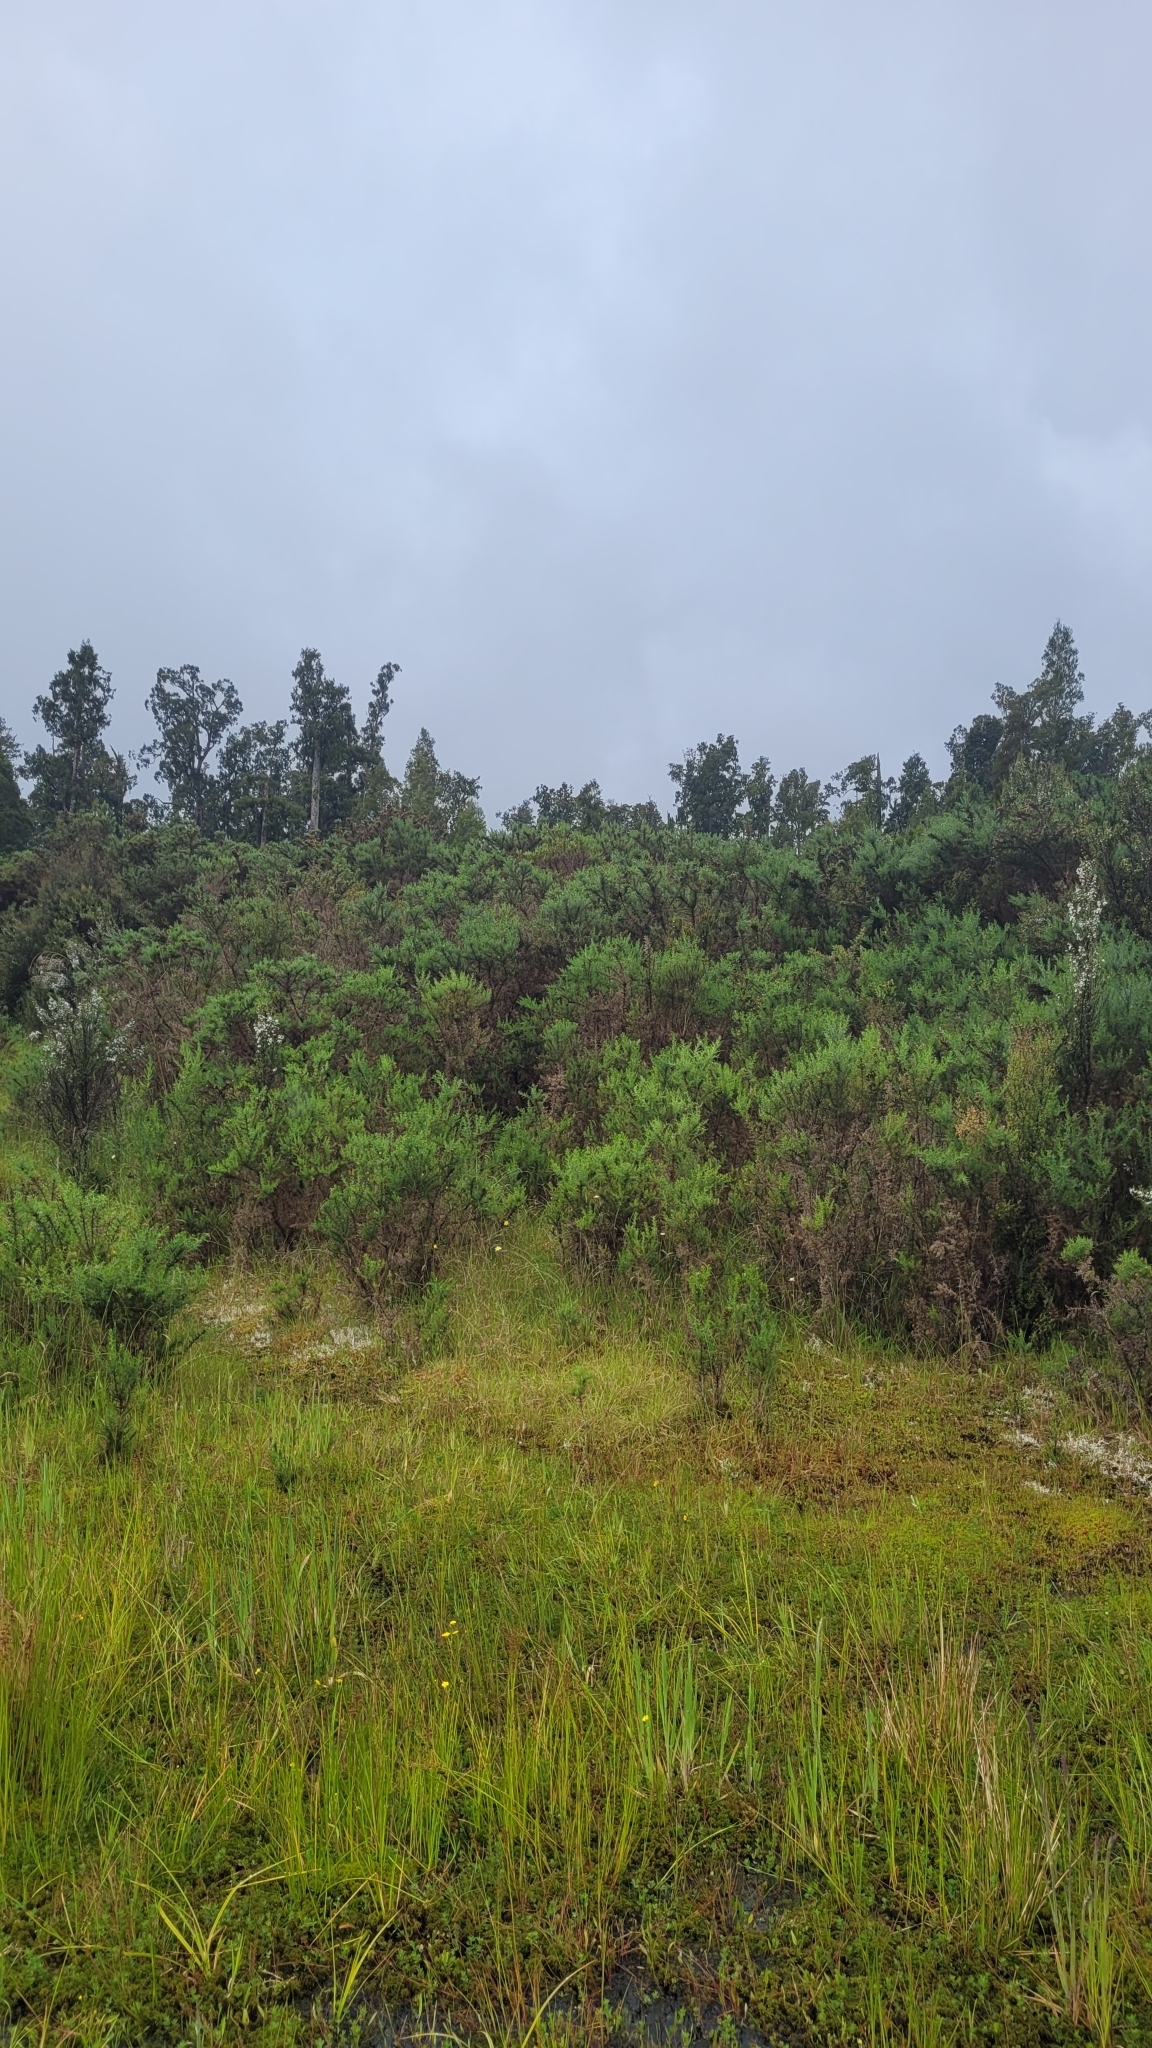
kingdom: Plantae
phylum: Tracheophyta
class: Magnoliopsida
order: Fabales
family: Fabaceae
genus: Ulex
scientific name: Ulex europaeus
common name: Common gorse
